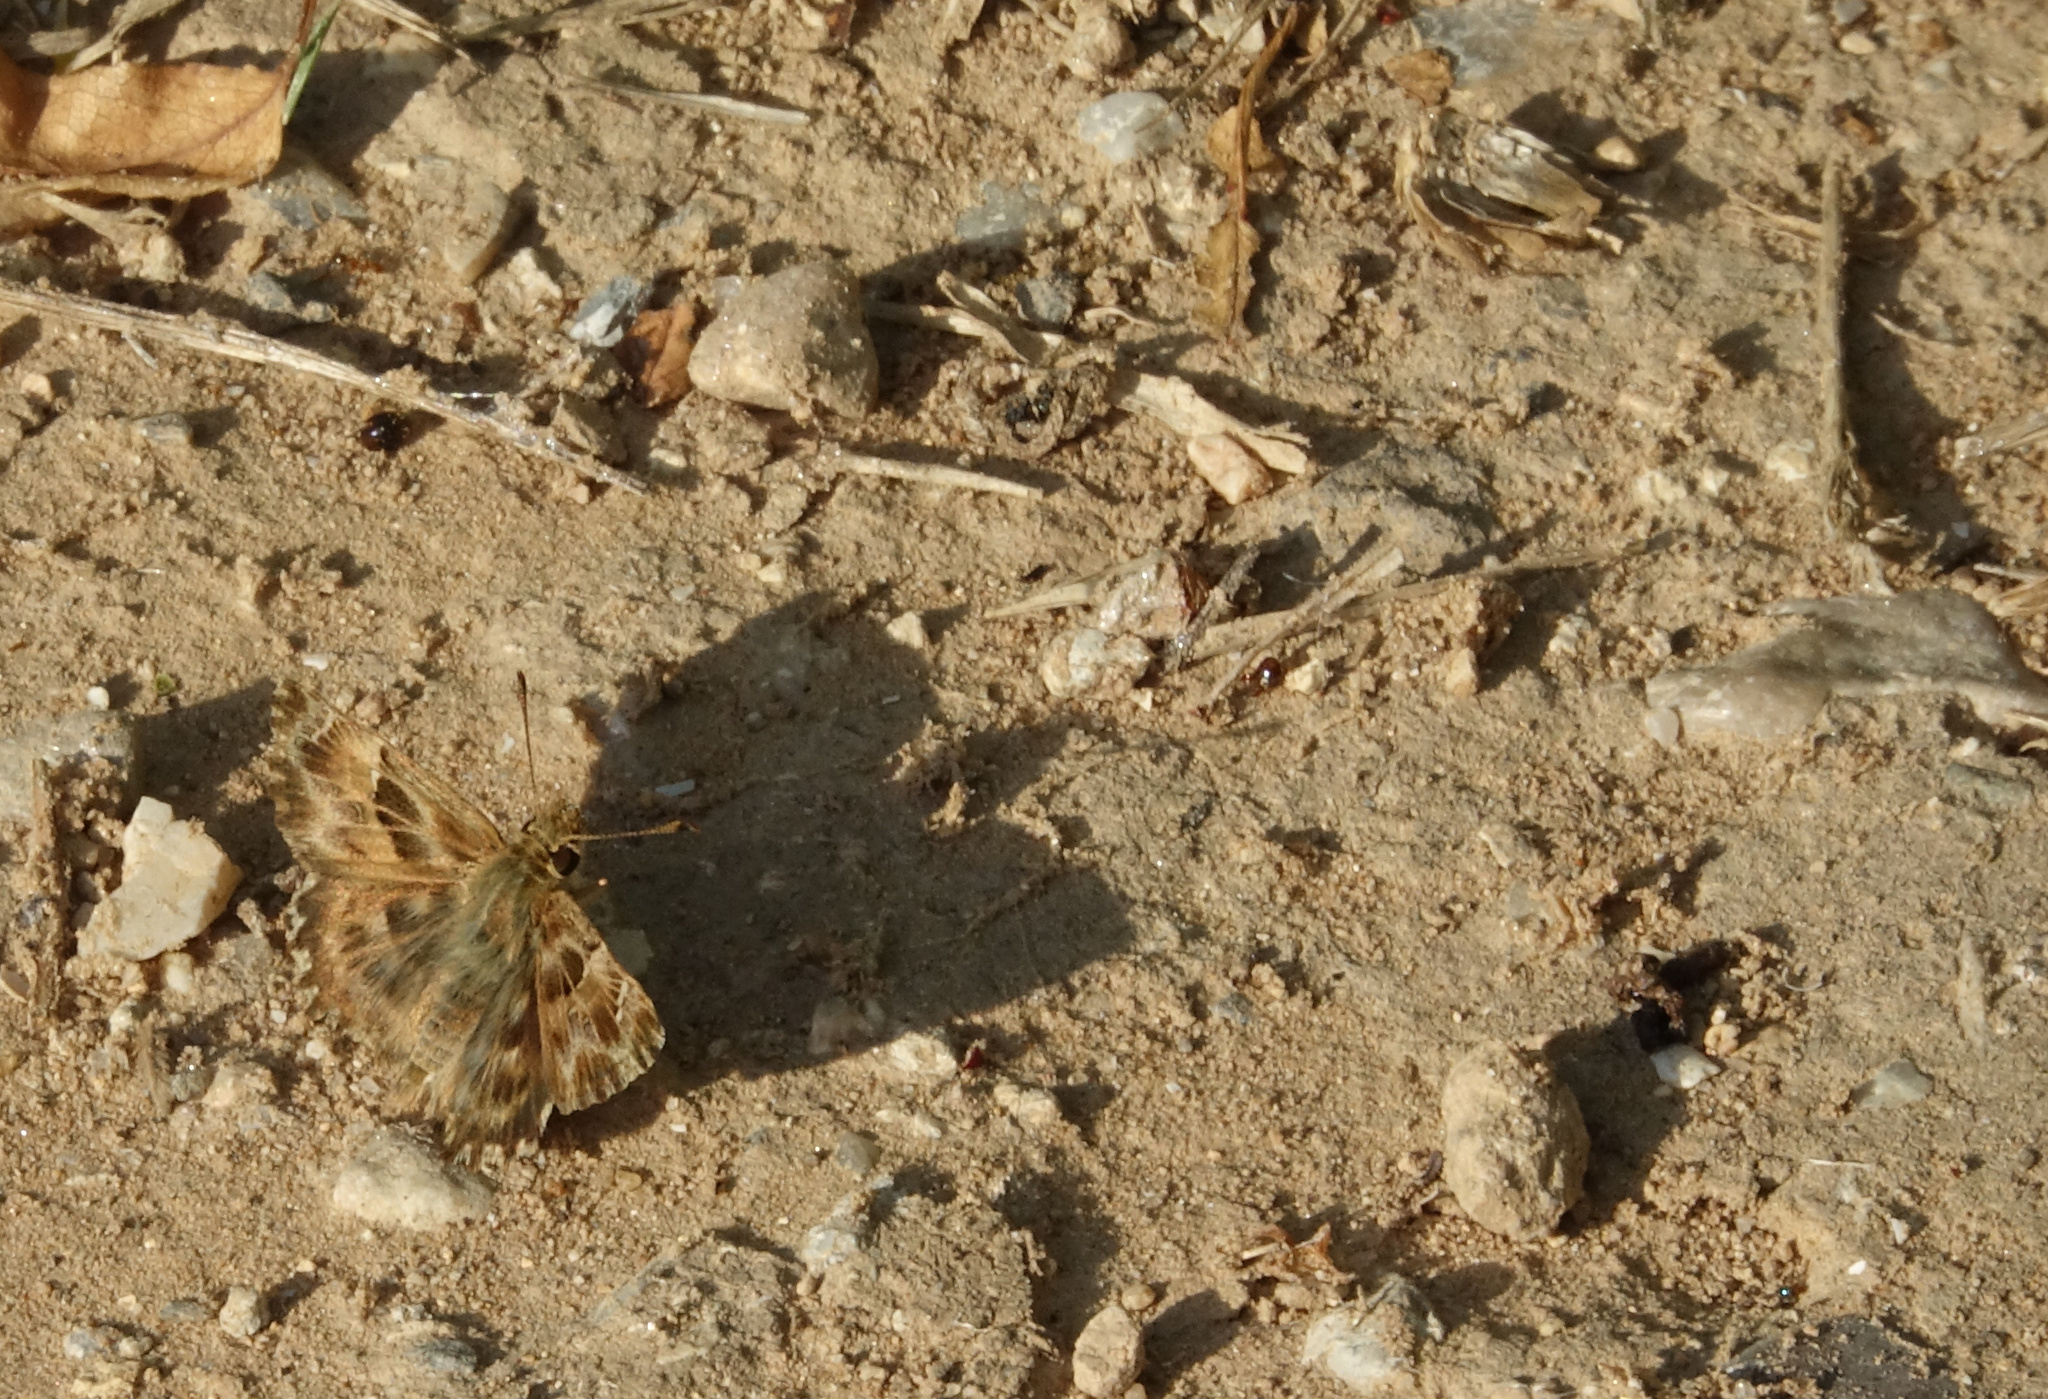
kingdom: Animalia
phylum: Arthropoda
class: Insecta
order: Lepidoptera
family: Hesperiidae
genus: Carcharodus
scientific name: Carcharodus alceae
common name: Mallow skipper
